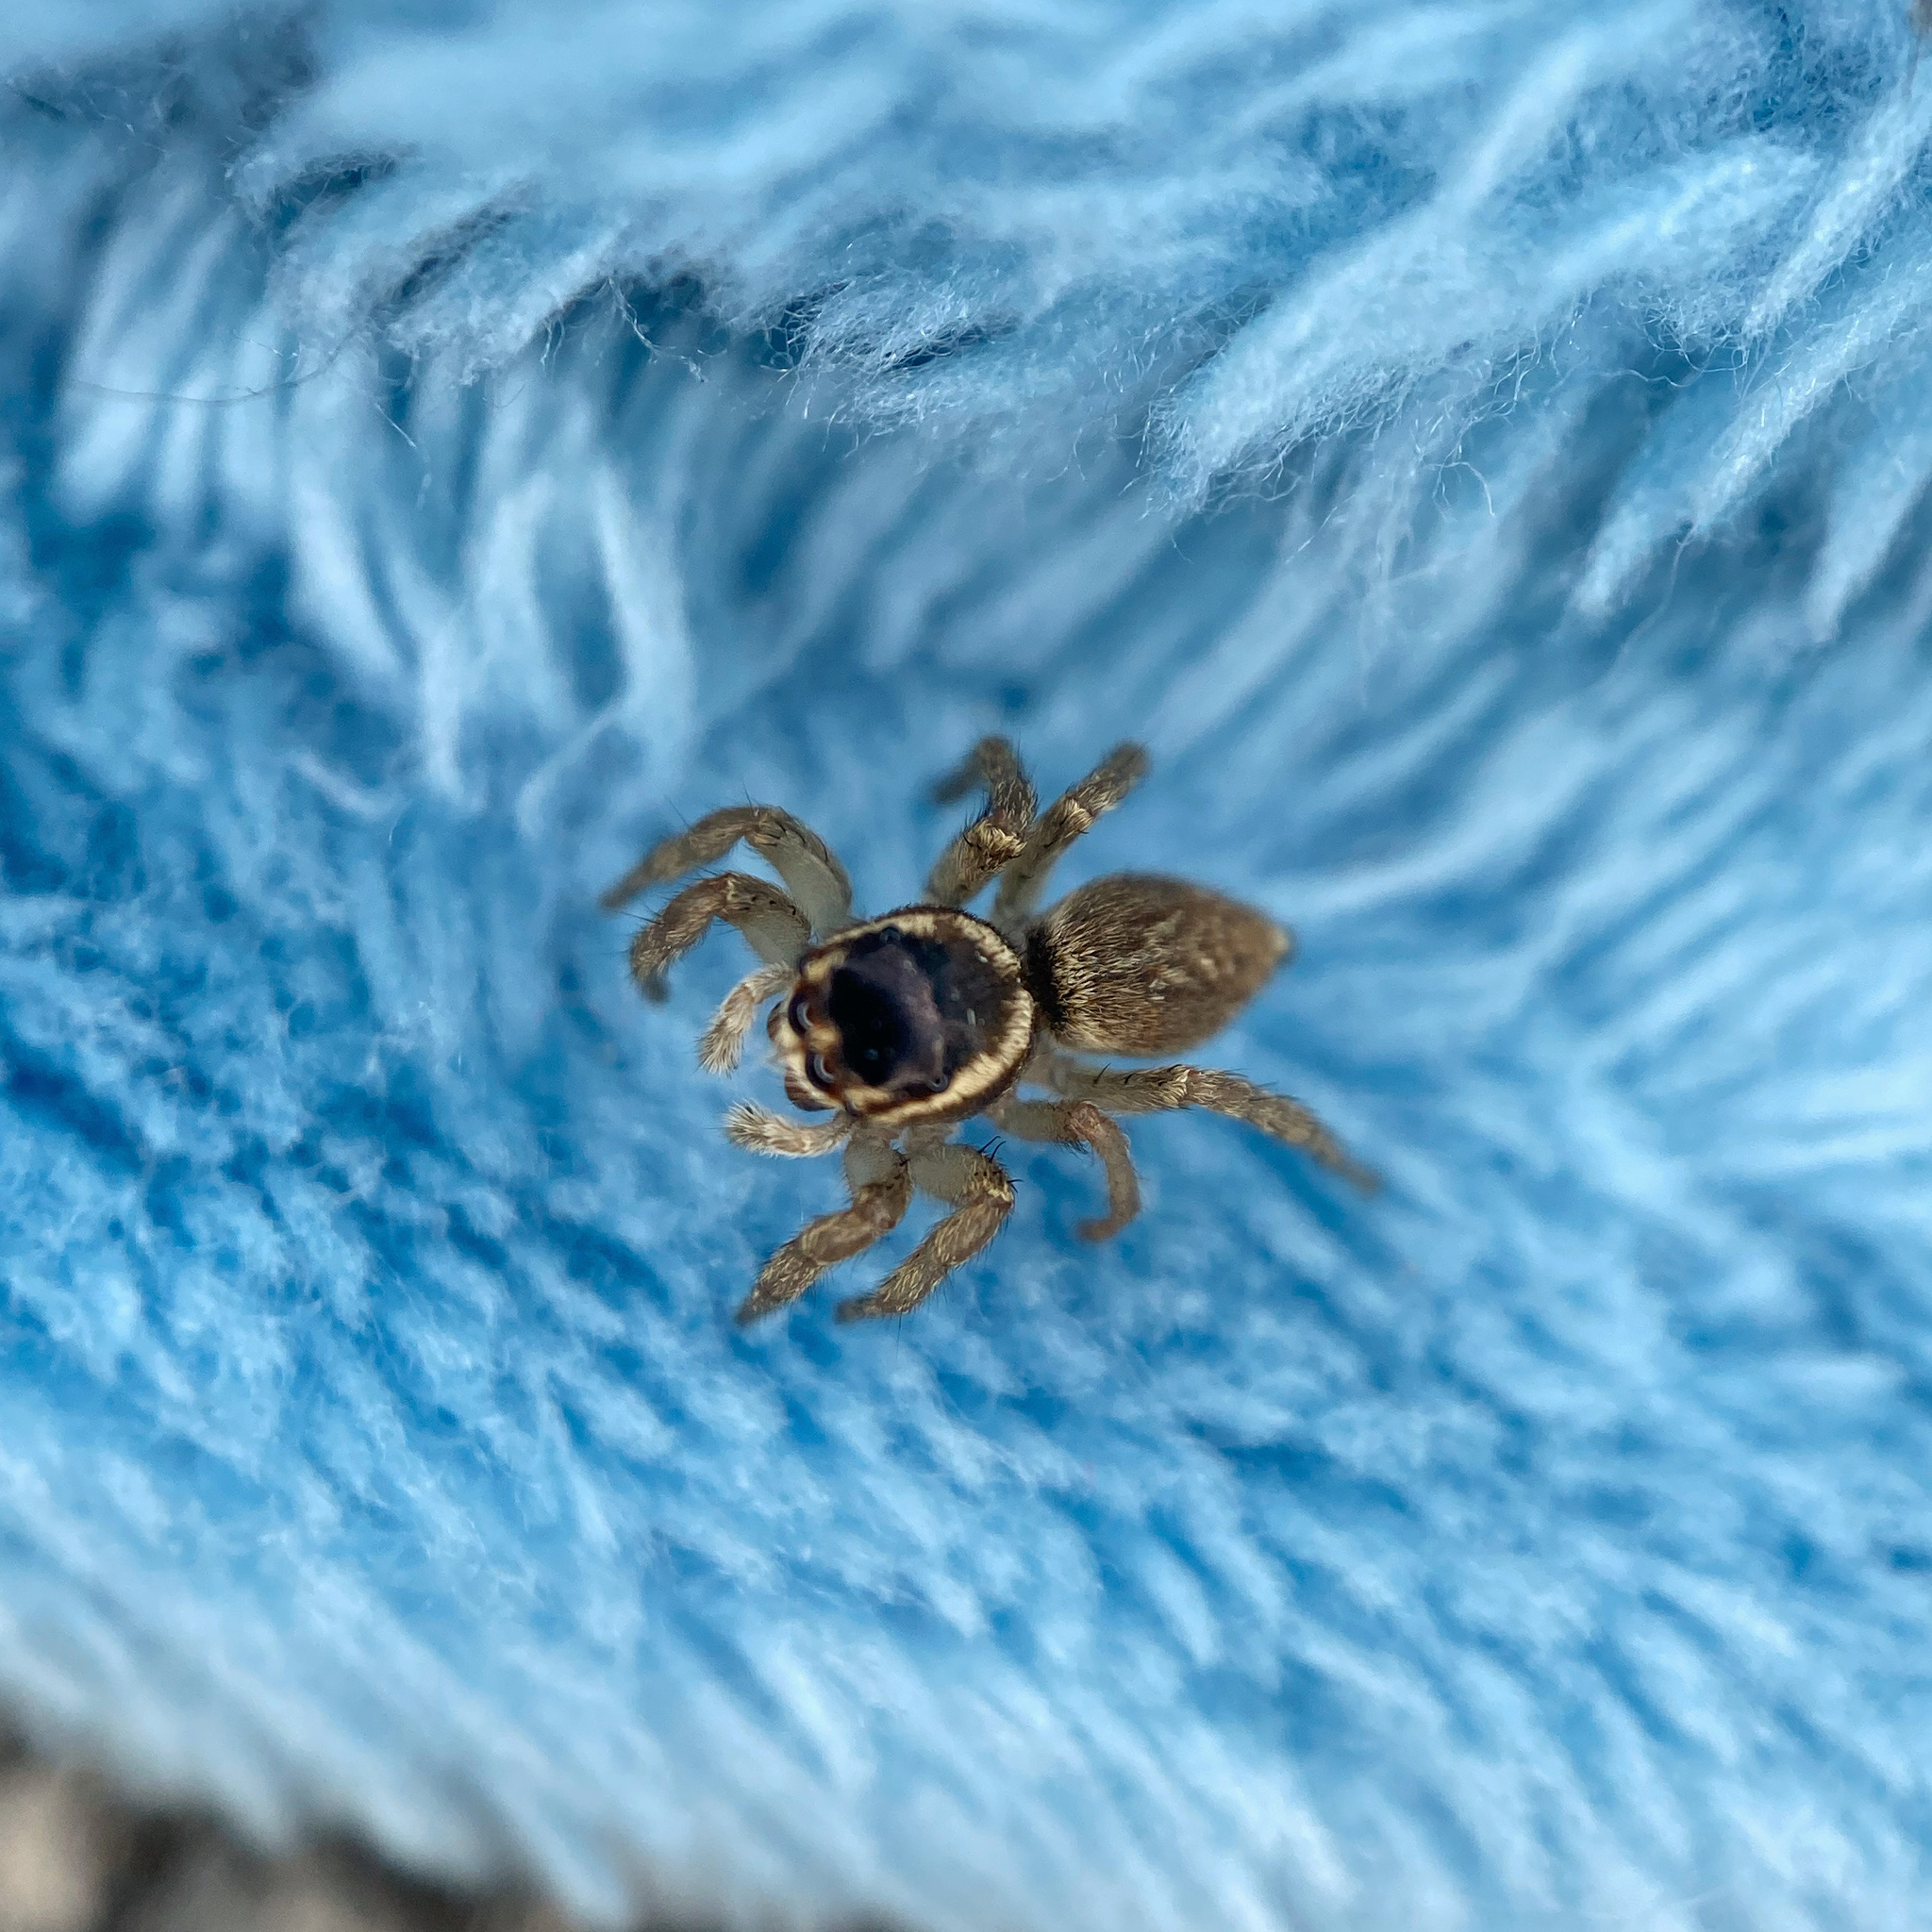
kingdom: Animalia
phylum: Arthropoda
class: Arachnida
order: Araneae
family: Salticidae
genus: Maratus
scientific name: Maratus griseus
